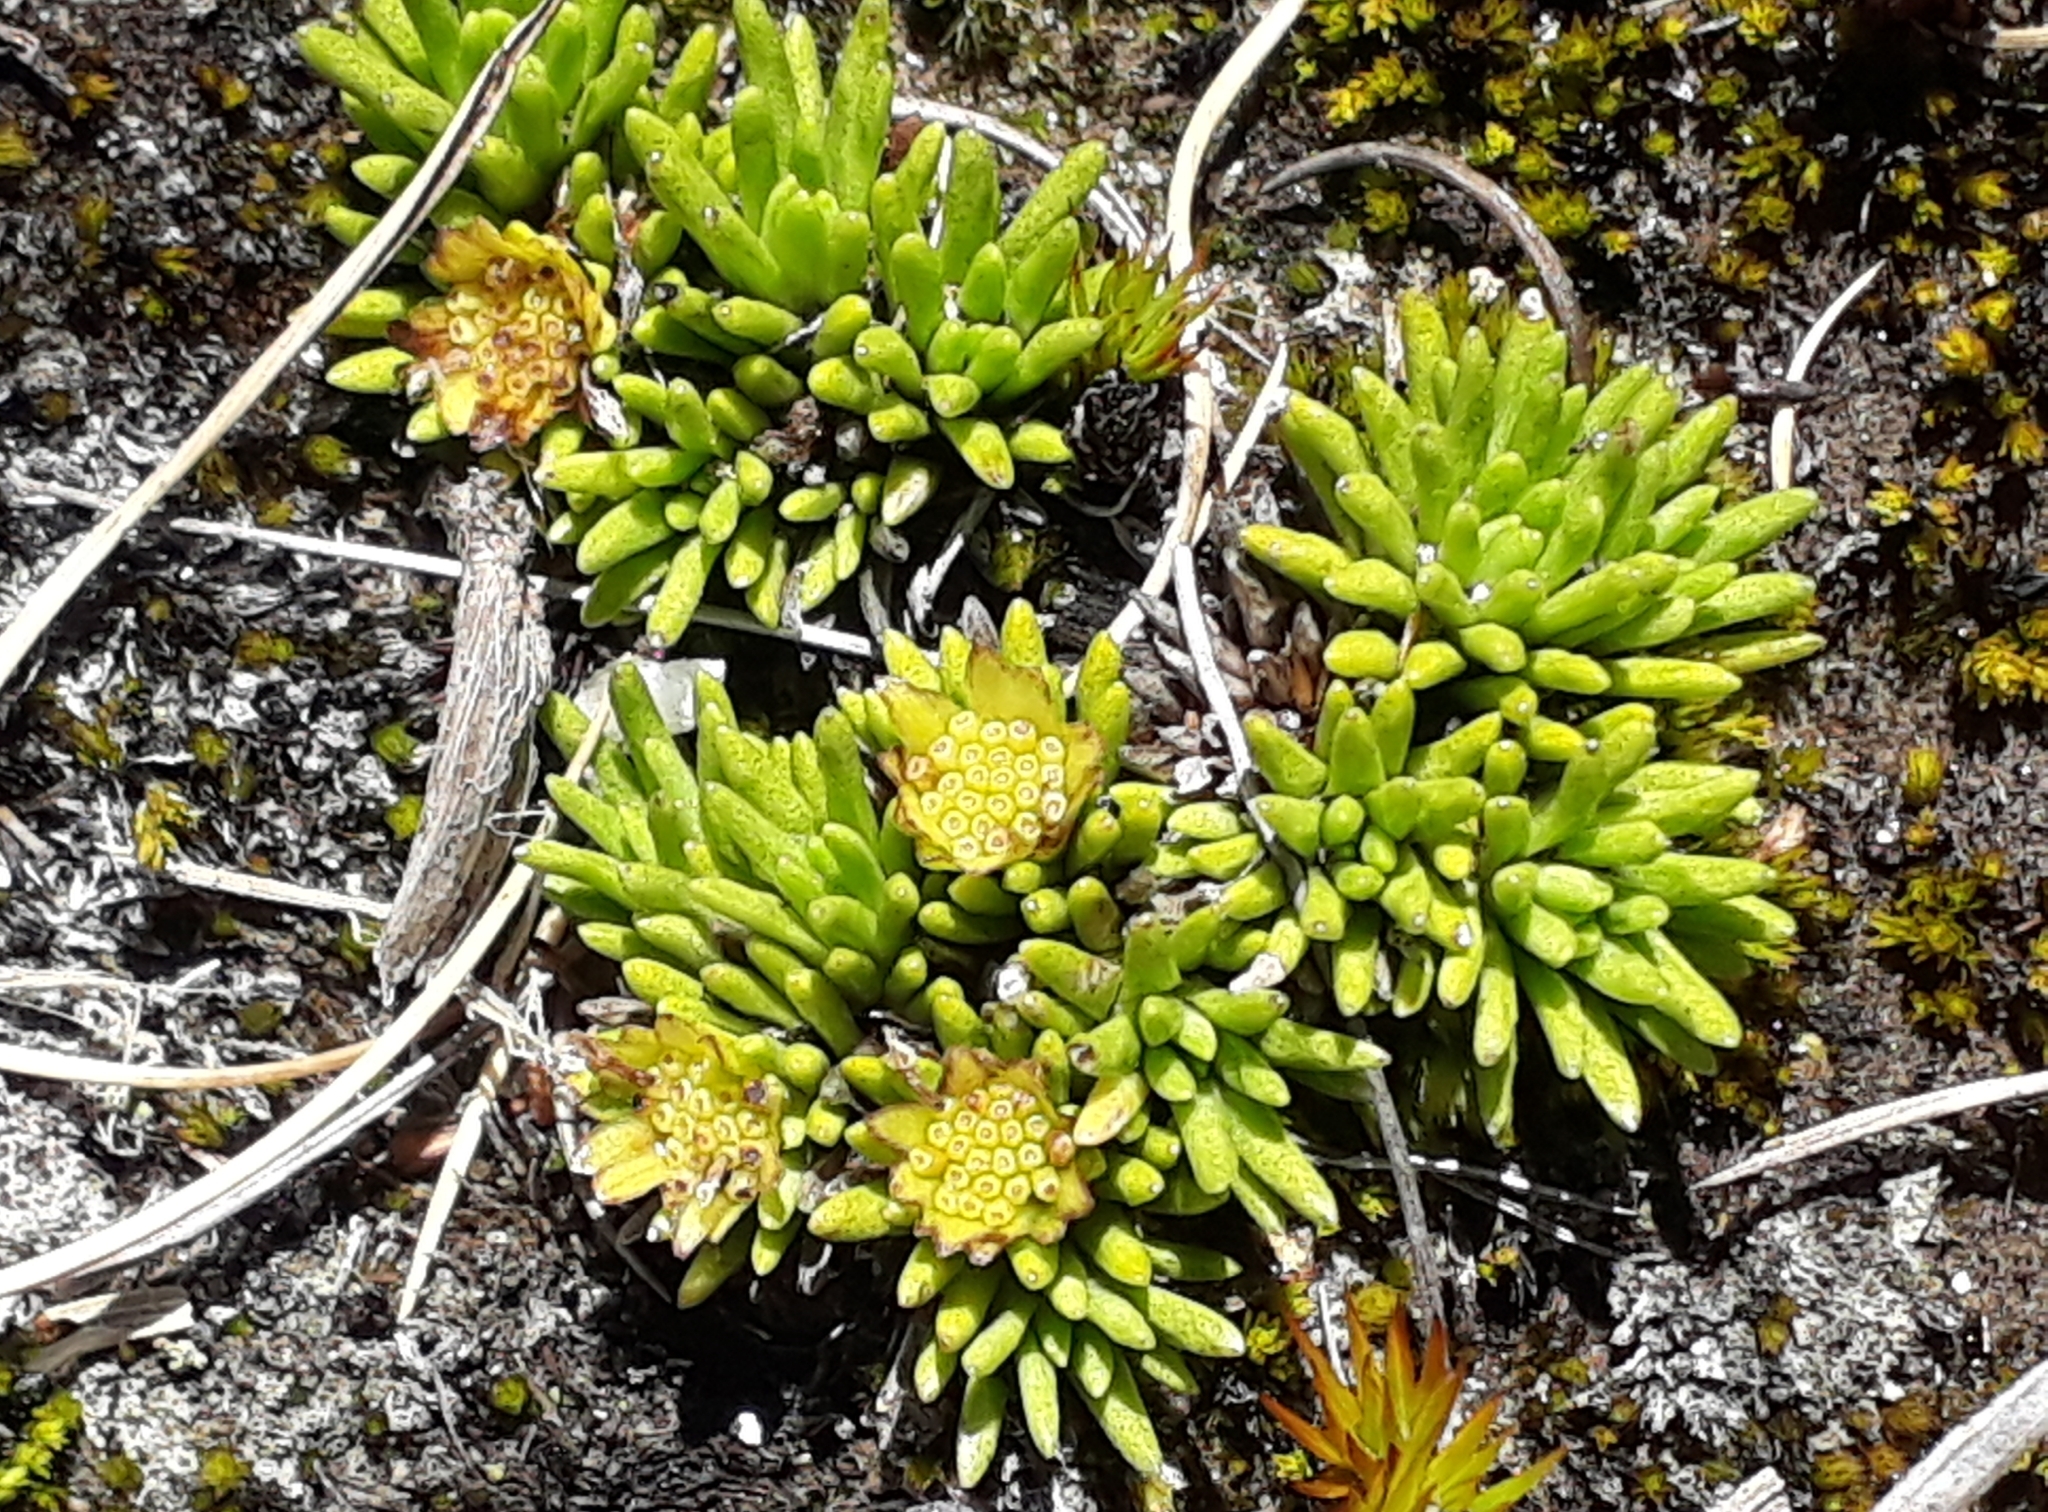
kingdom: Plantae
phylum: Tracheophyta
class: Magnoliopsida
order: Asterales
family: Asteraceae
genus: Abrotanella
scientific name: Abrotanella inconspicua
